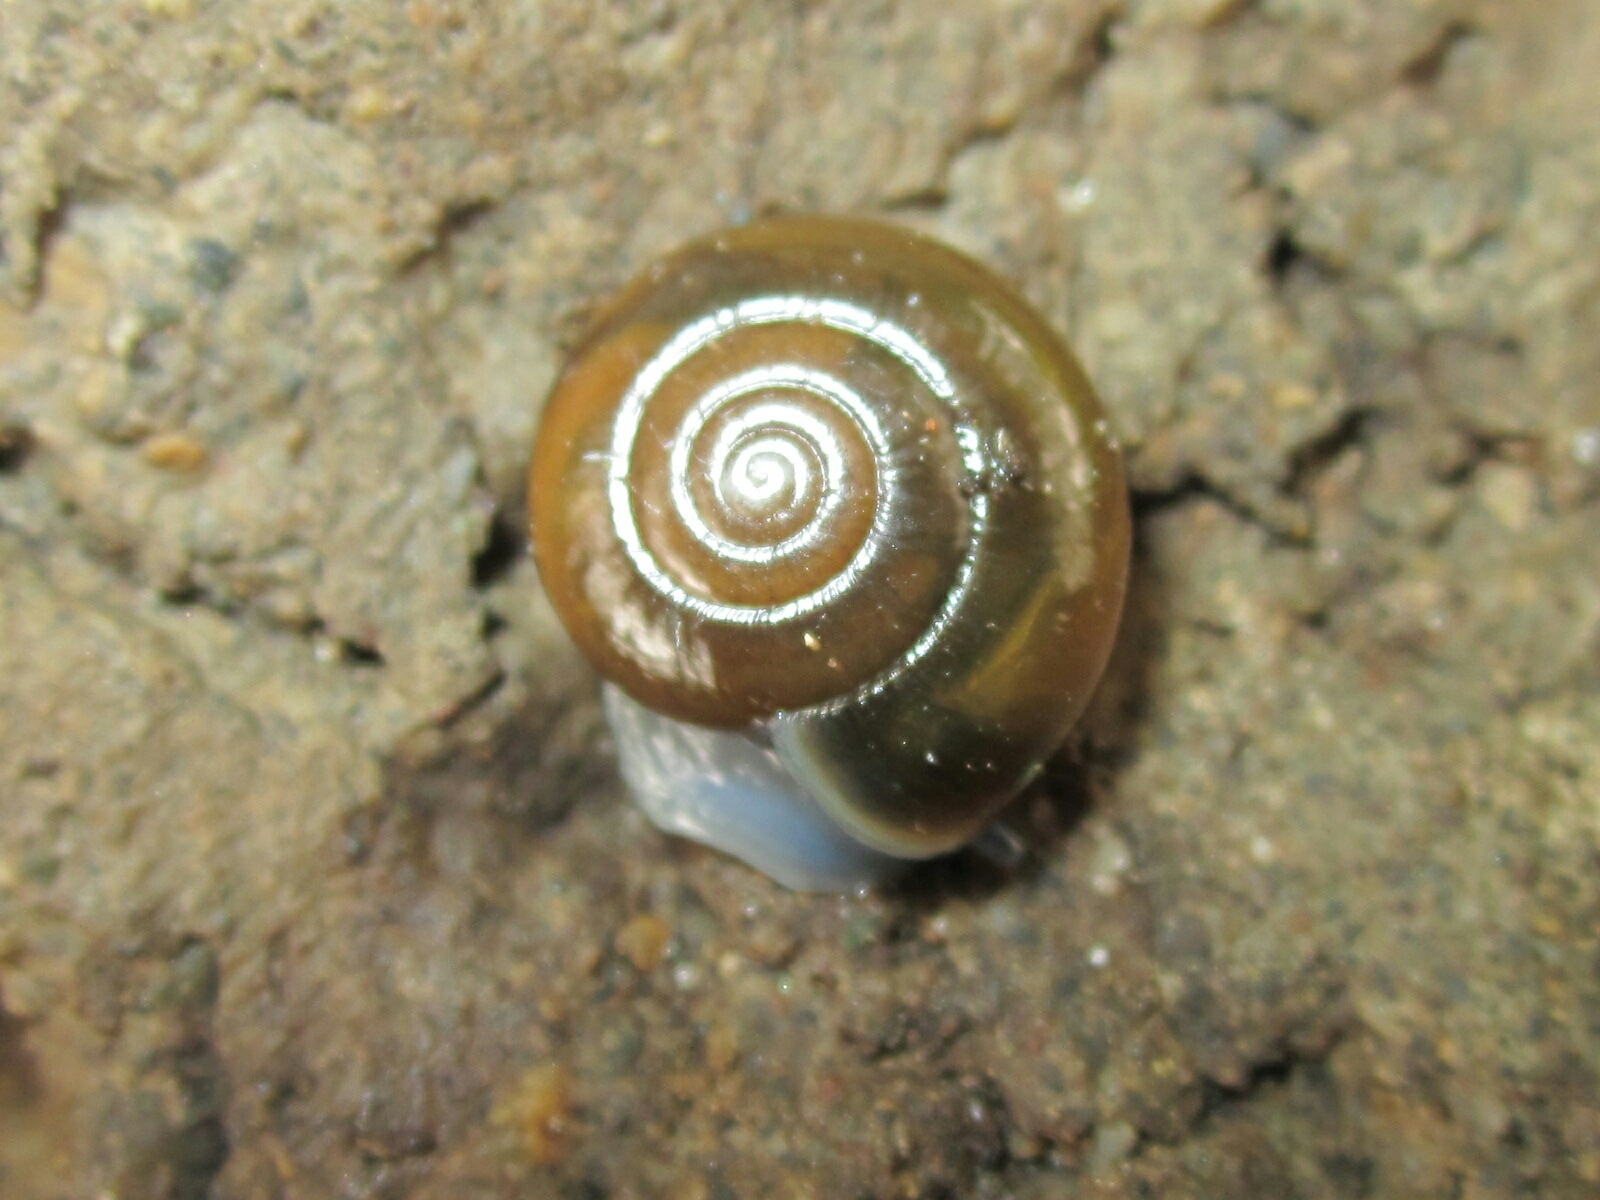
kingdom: Animalia
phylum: Mollusca
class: Gastropoda
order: Stylommatophora
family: Oxychilidae
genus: Oxychilus
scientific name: Oxychilus alliarius
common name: Garlic glass-snail
